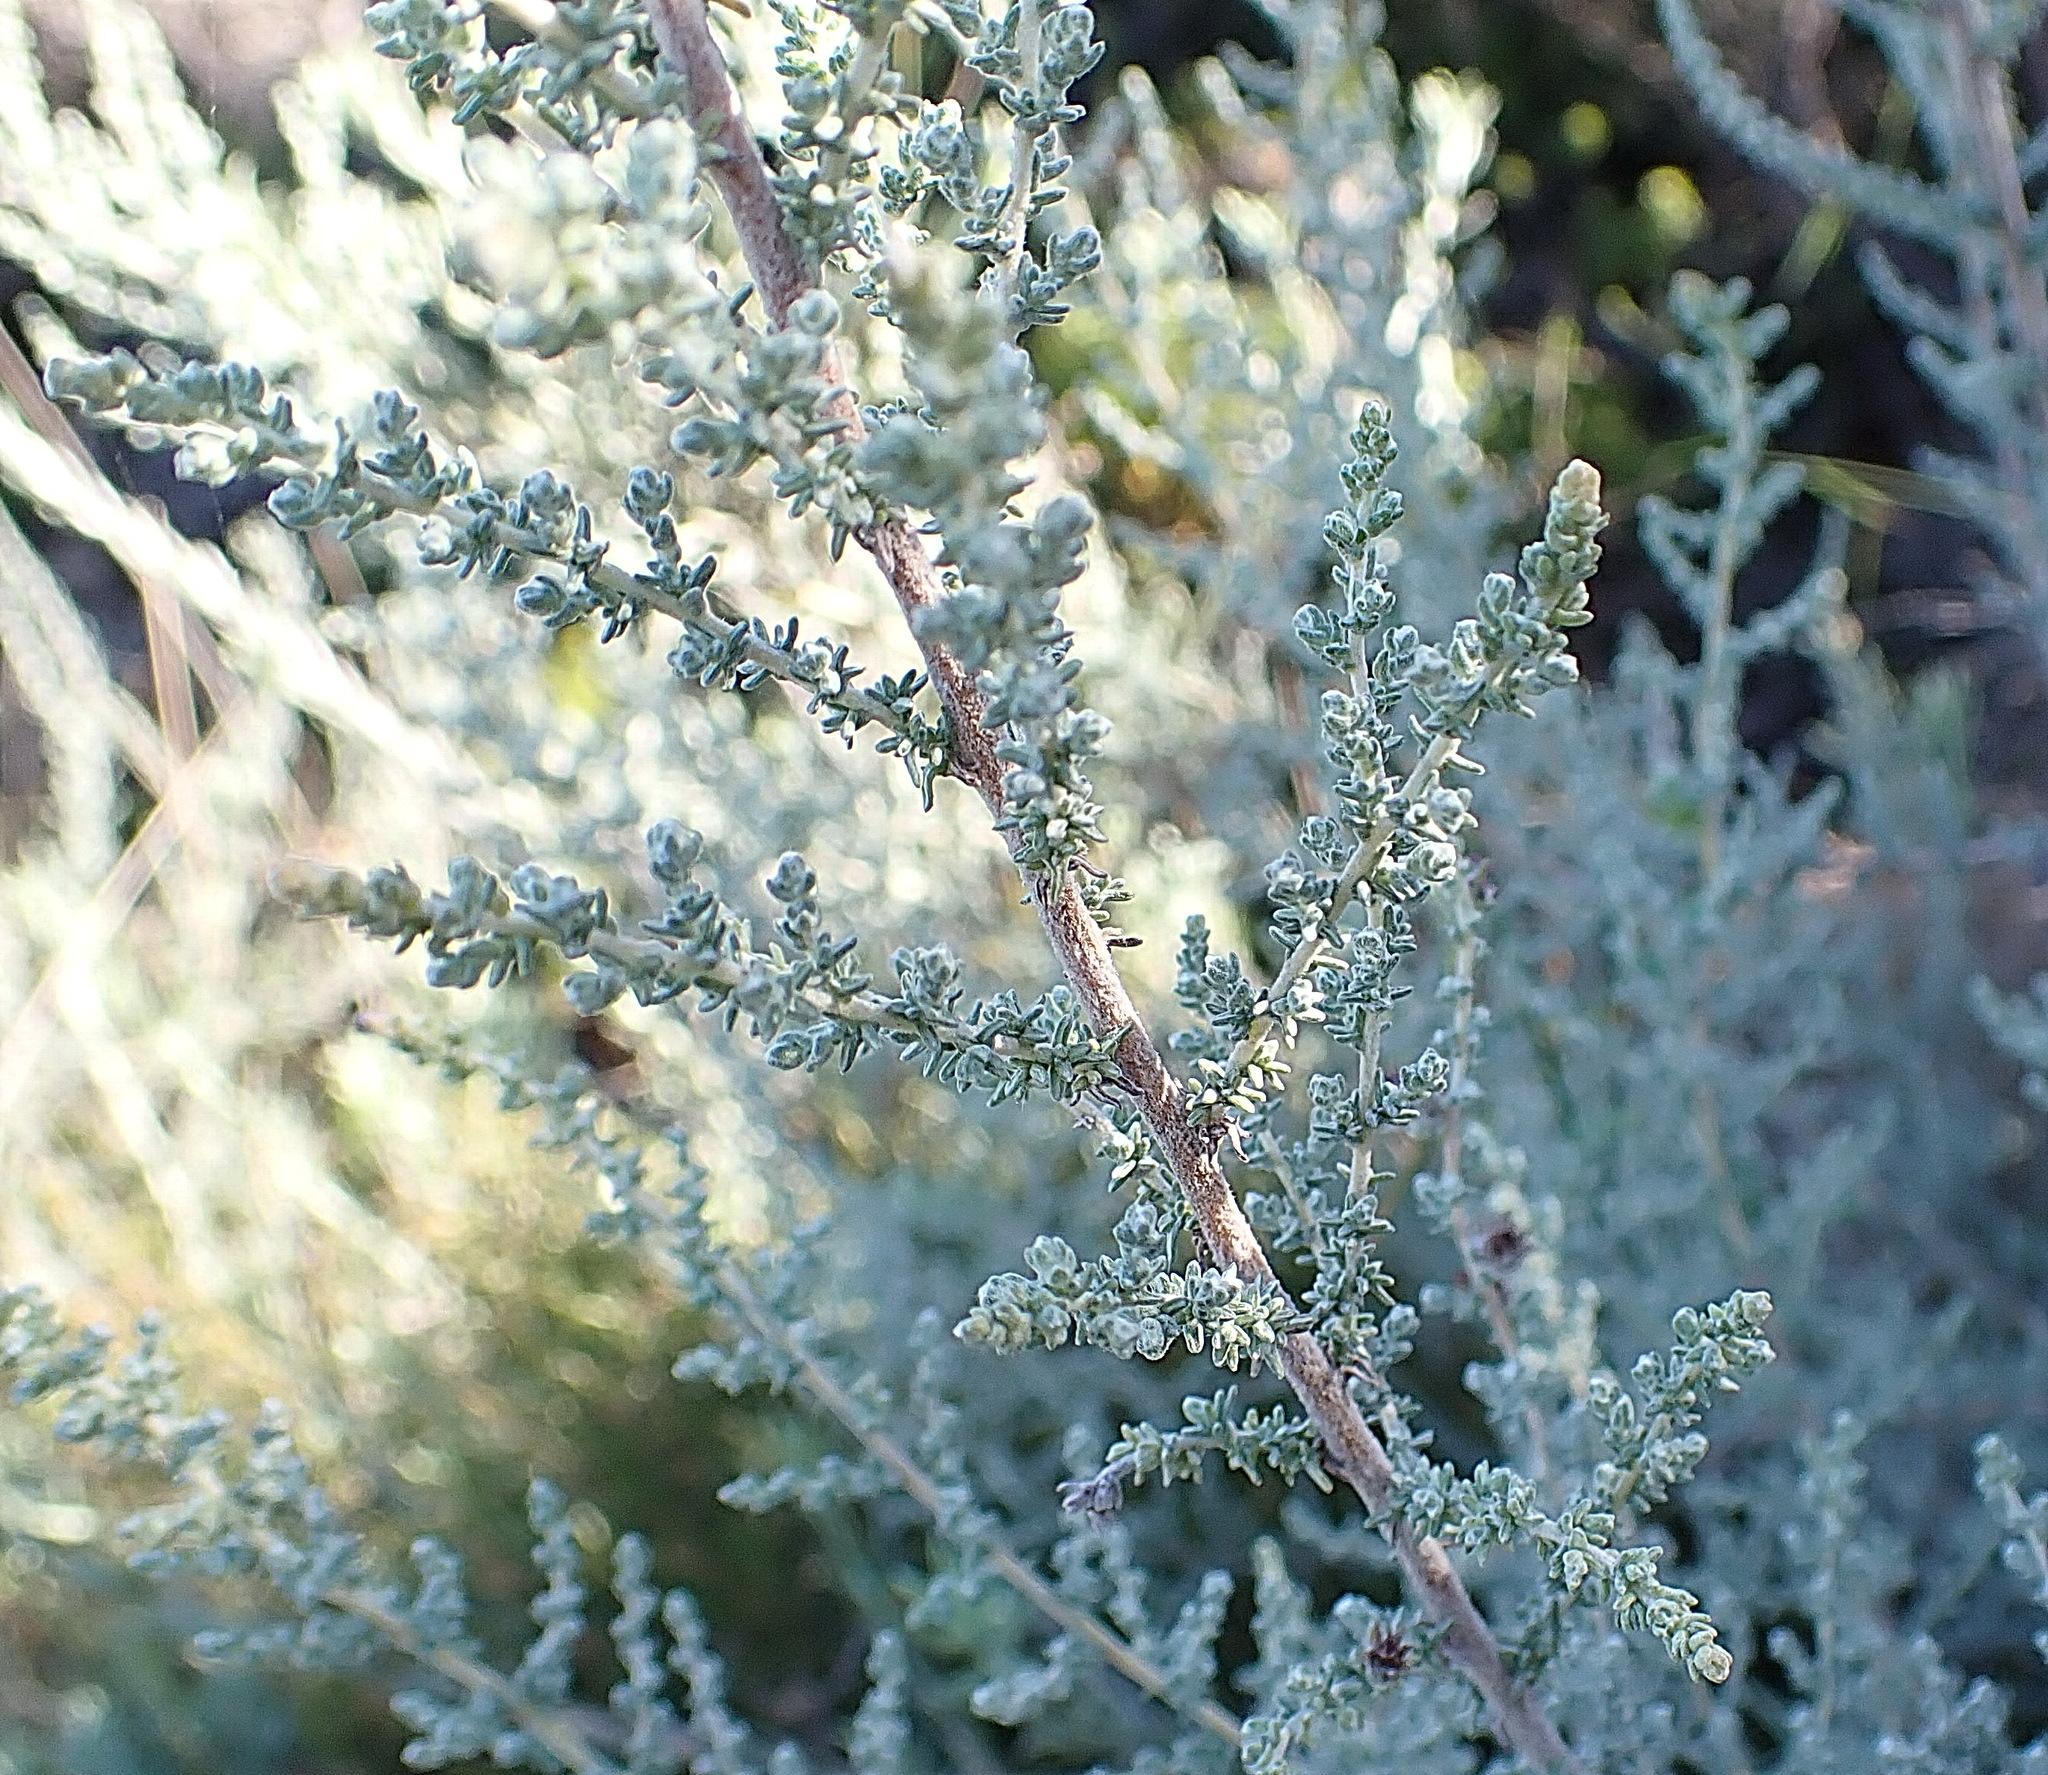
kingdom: Plantae
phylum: Tracheophyta
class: Magnoliopsida
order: Asterales
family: Asteraceae
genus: Seriphium
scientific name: Seriphium plumosum
